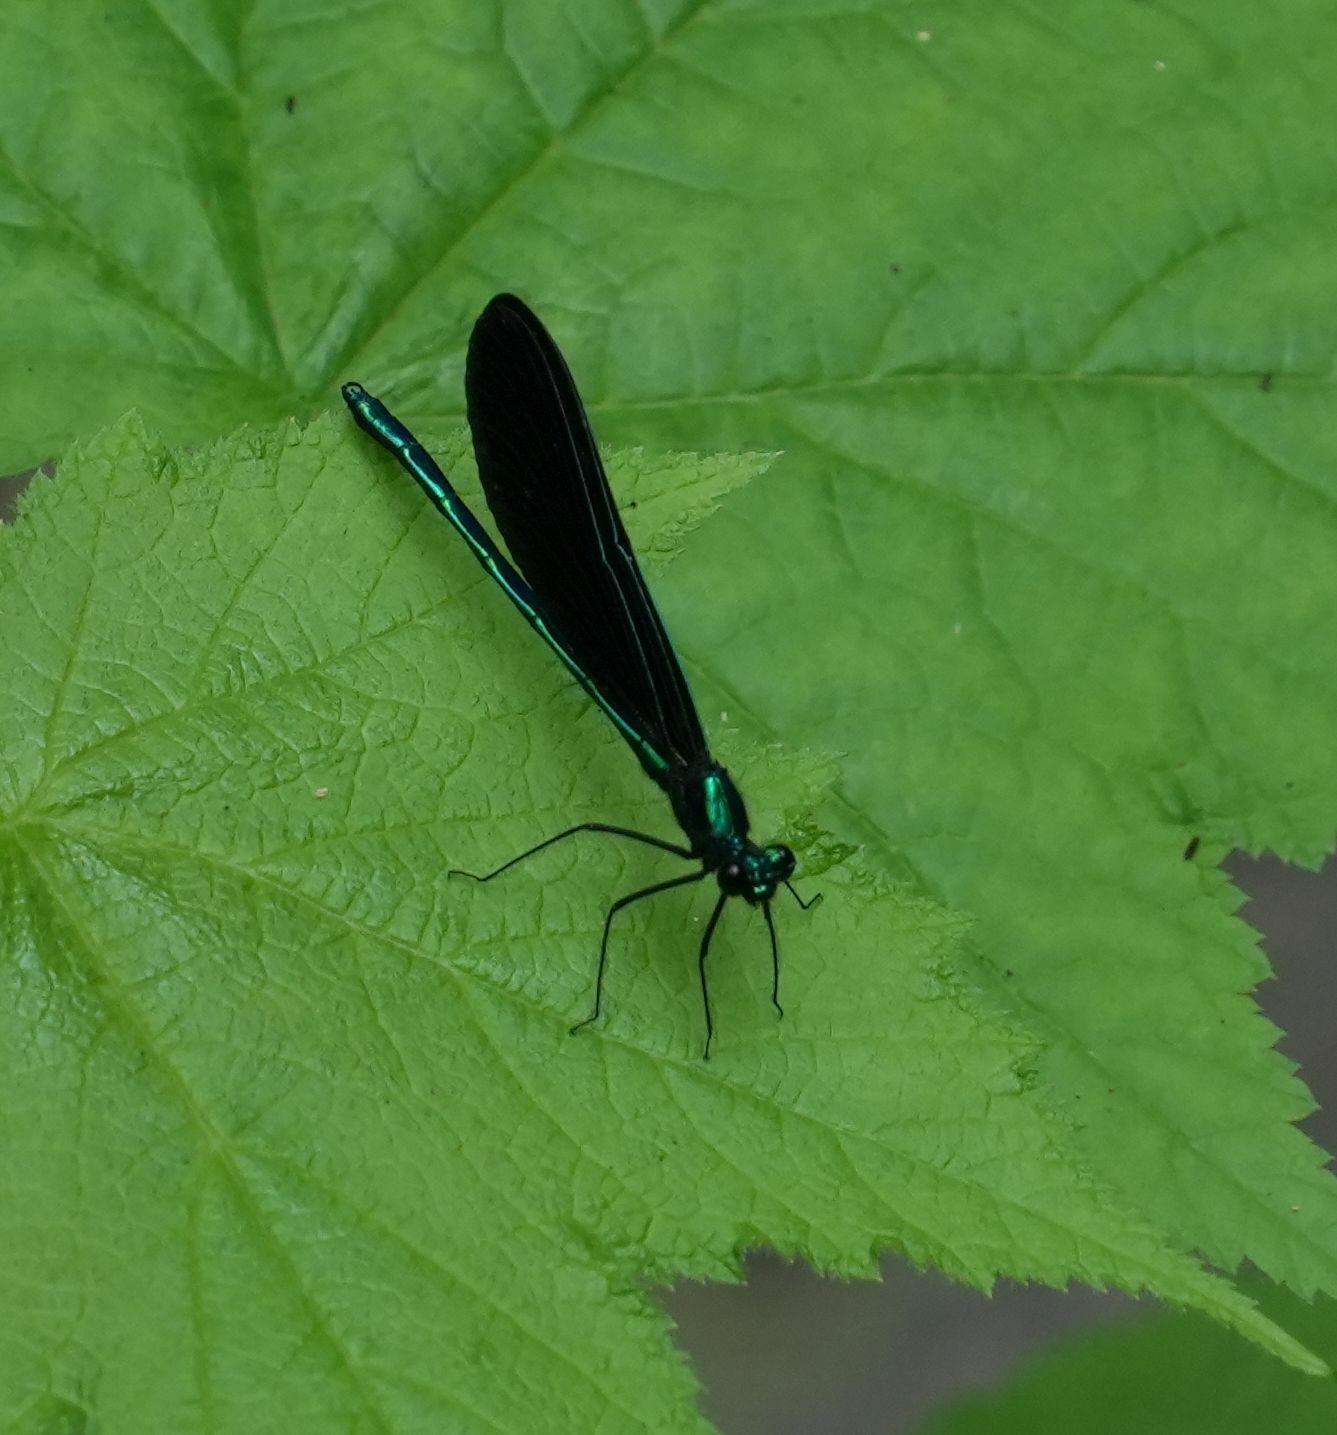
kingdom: Animalia
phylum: Arthropoda
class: Insecta
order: Odonata
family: Calopterygidae
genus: Calopteryx
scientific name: Calopteryx maculata
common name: Ebony jewelwing
